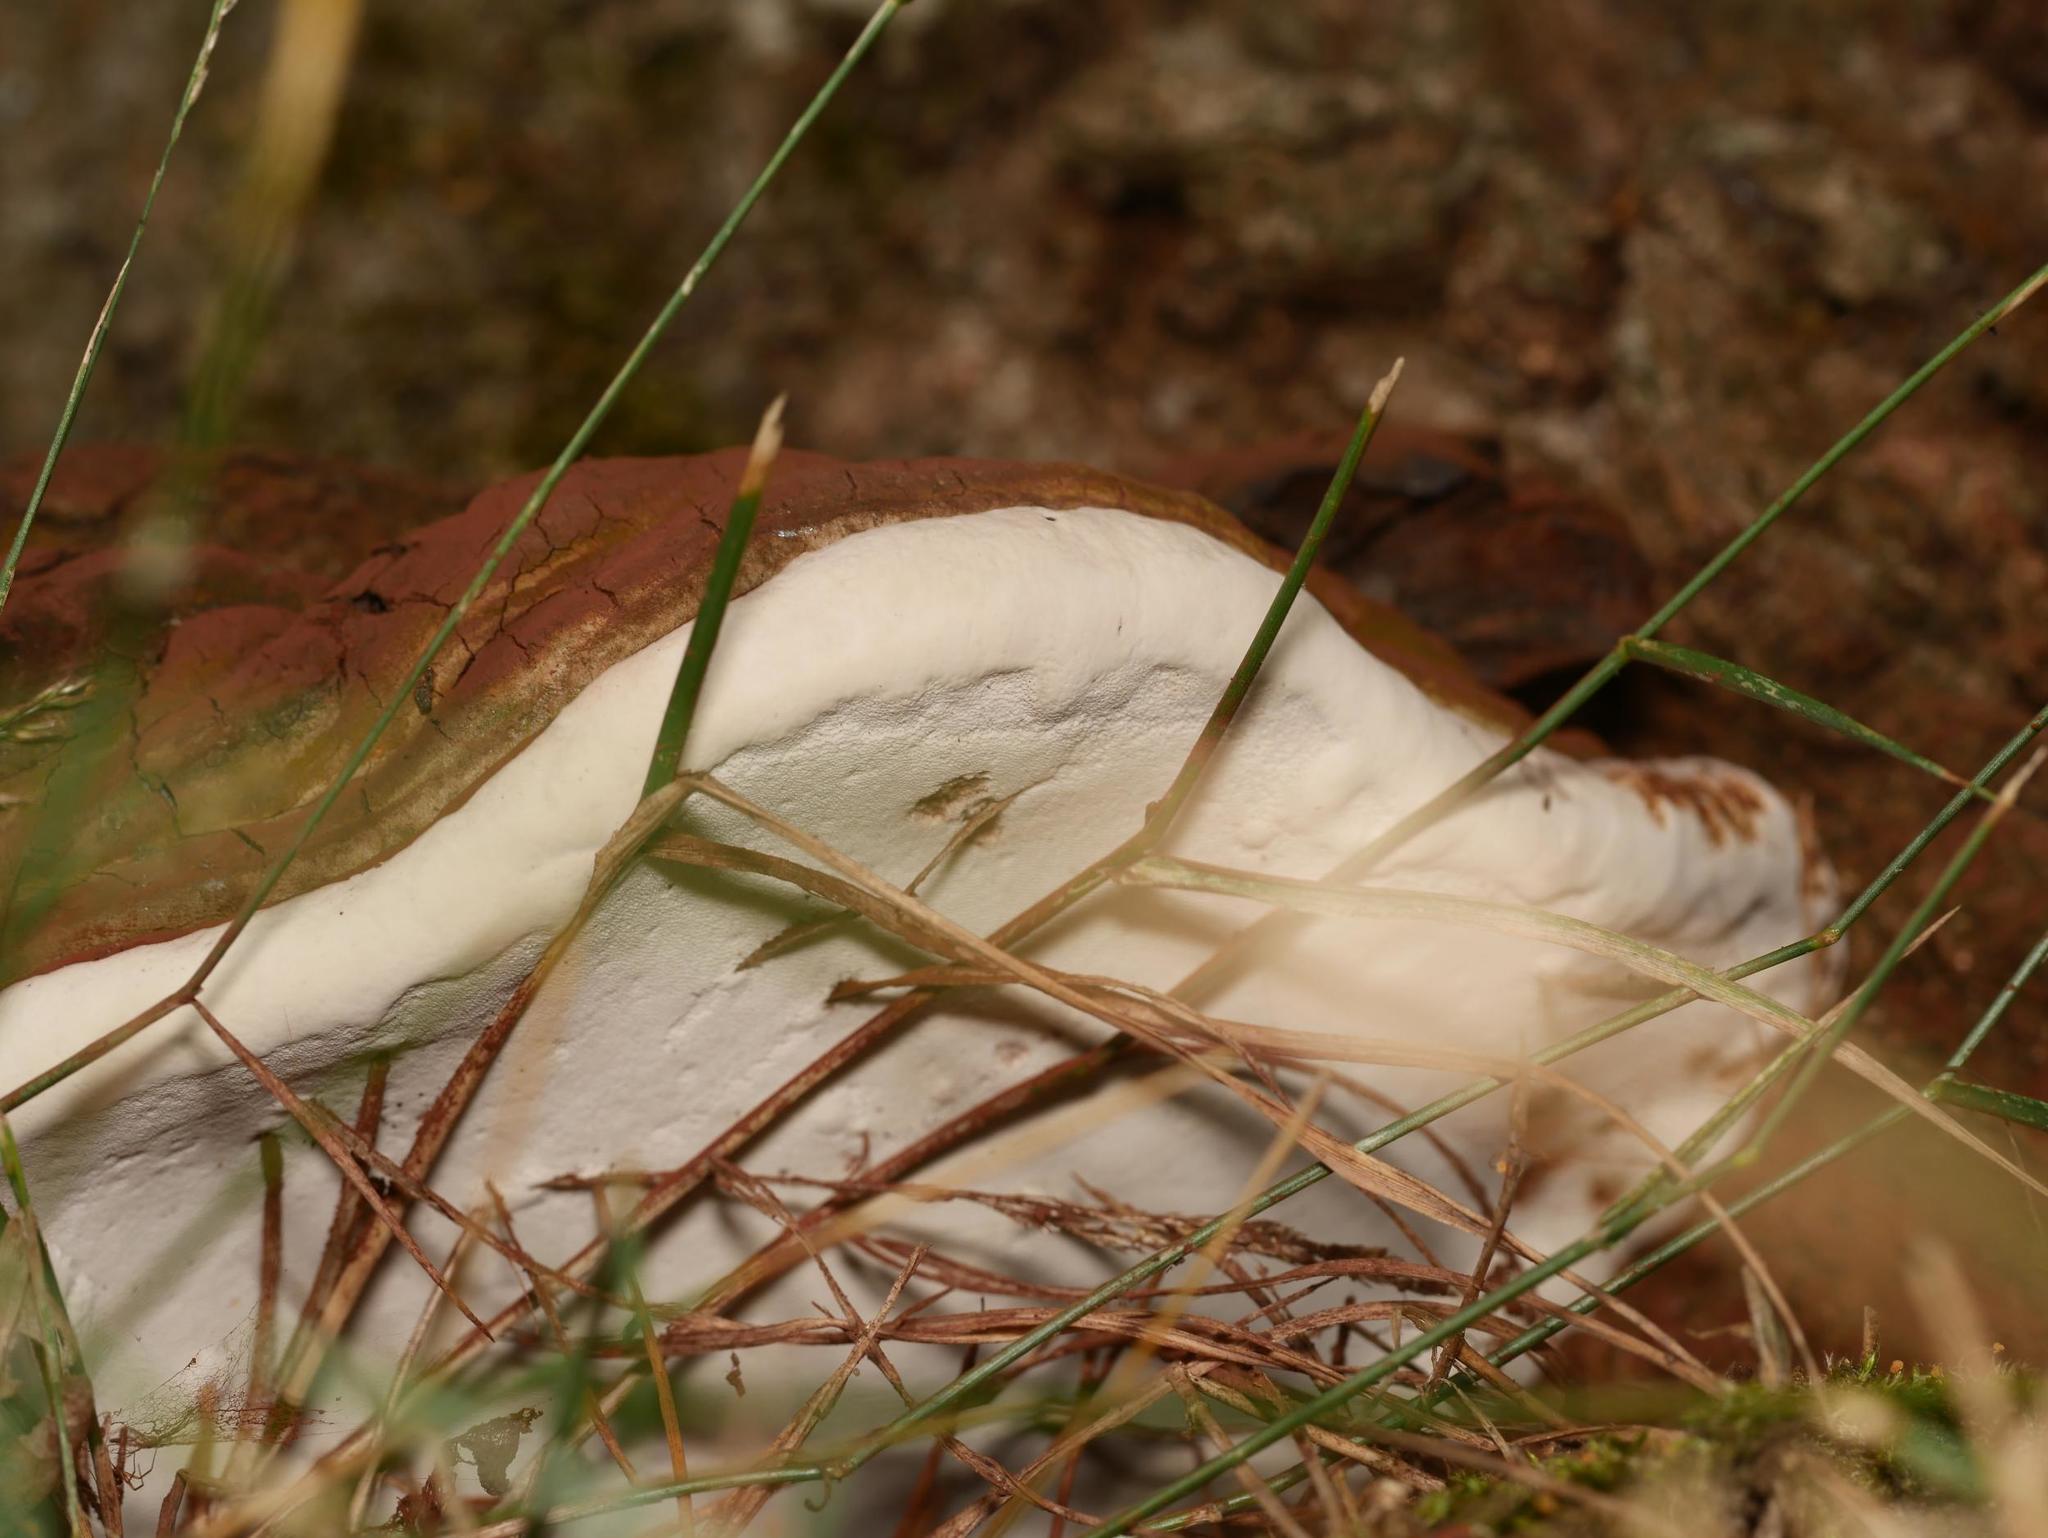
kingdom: Fungi
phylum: Basidiomycota
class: Agaricomycetes
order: Polyporales
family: Polyporaceae
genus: Ganoderma
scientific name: Ganoderma applanatum
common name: Artist's bracket
